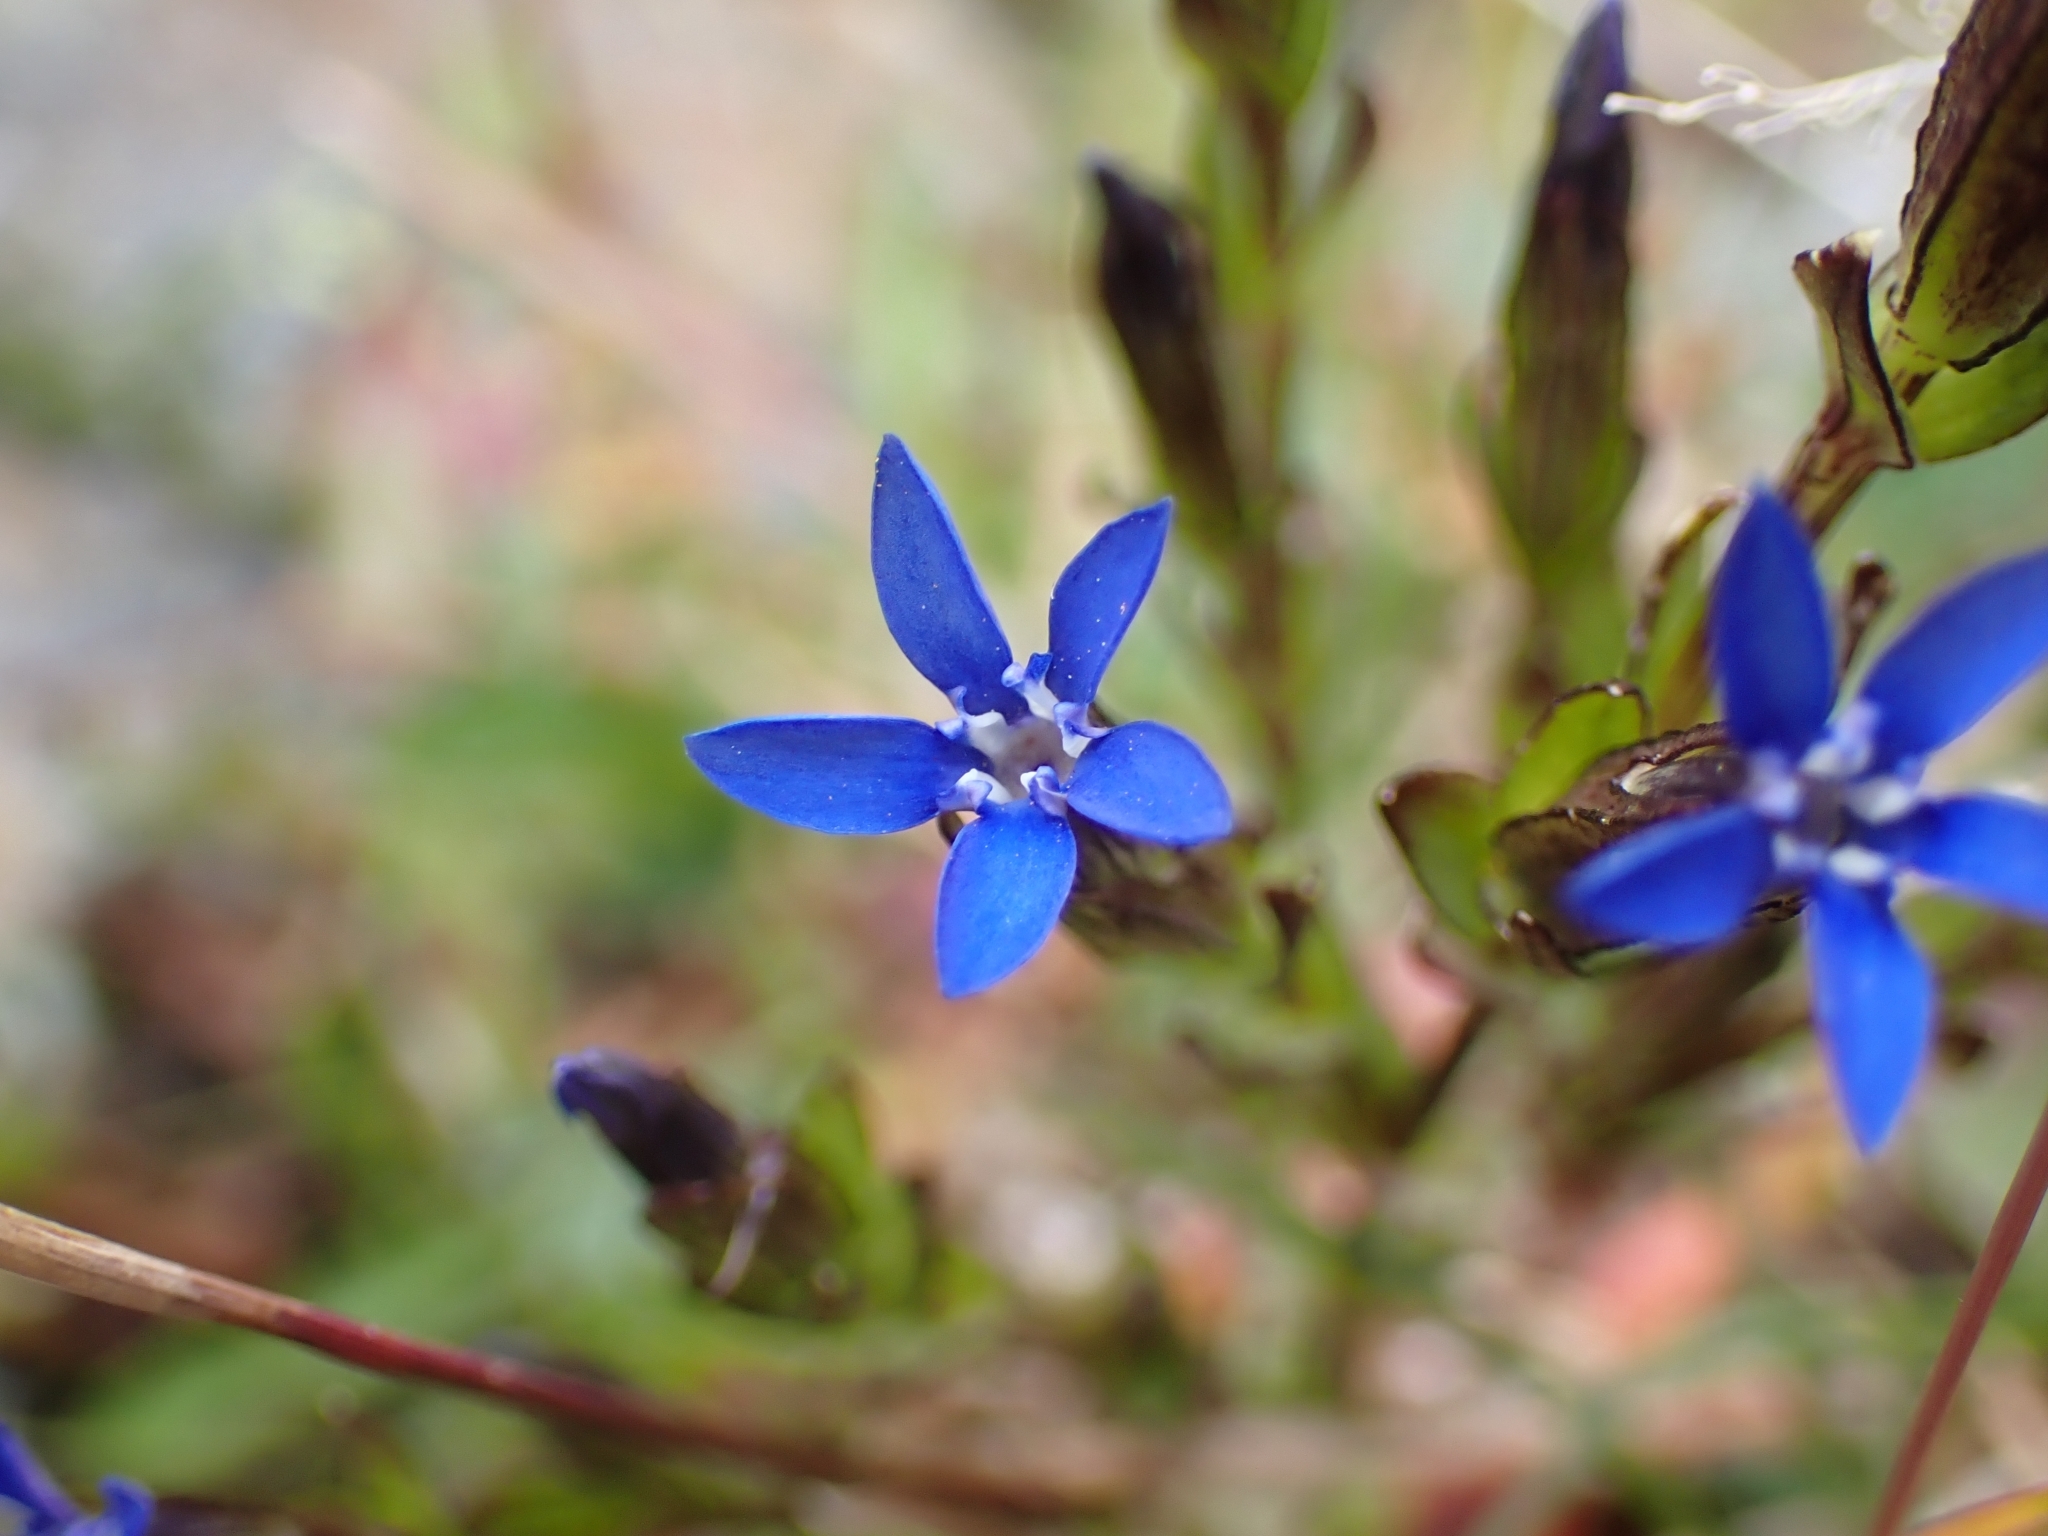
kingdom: Plantae
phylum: Tracheophyta
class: Magnoliopsida
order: Gentianales
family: Gentianaceae
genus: Gentiana
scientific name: Gentiana nivalis
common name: Alpine gentian
